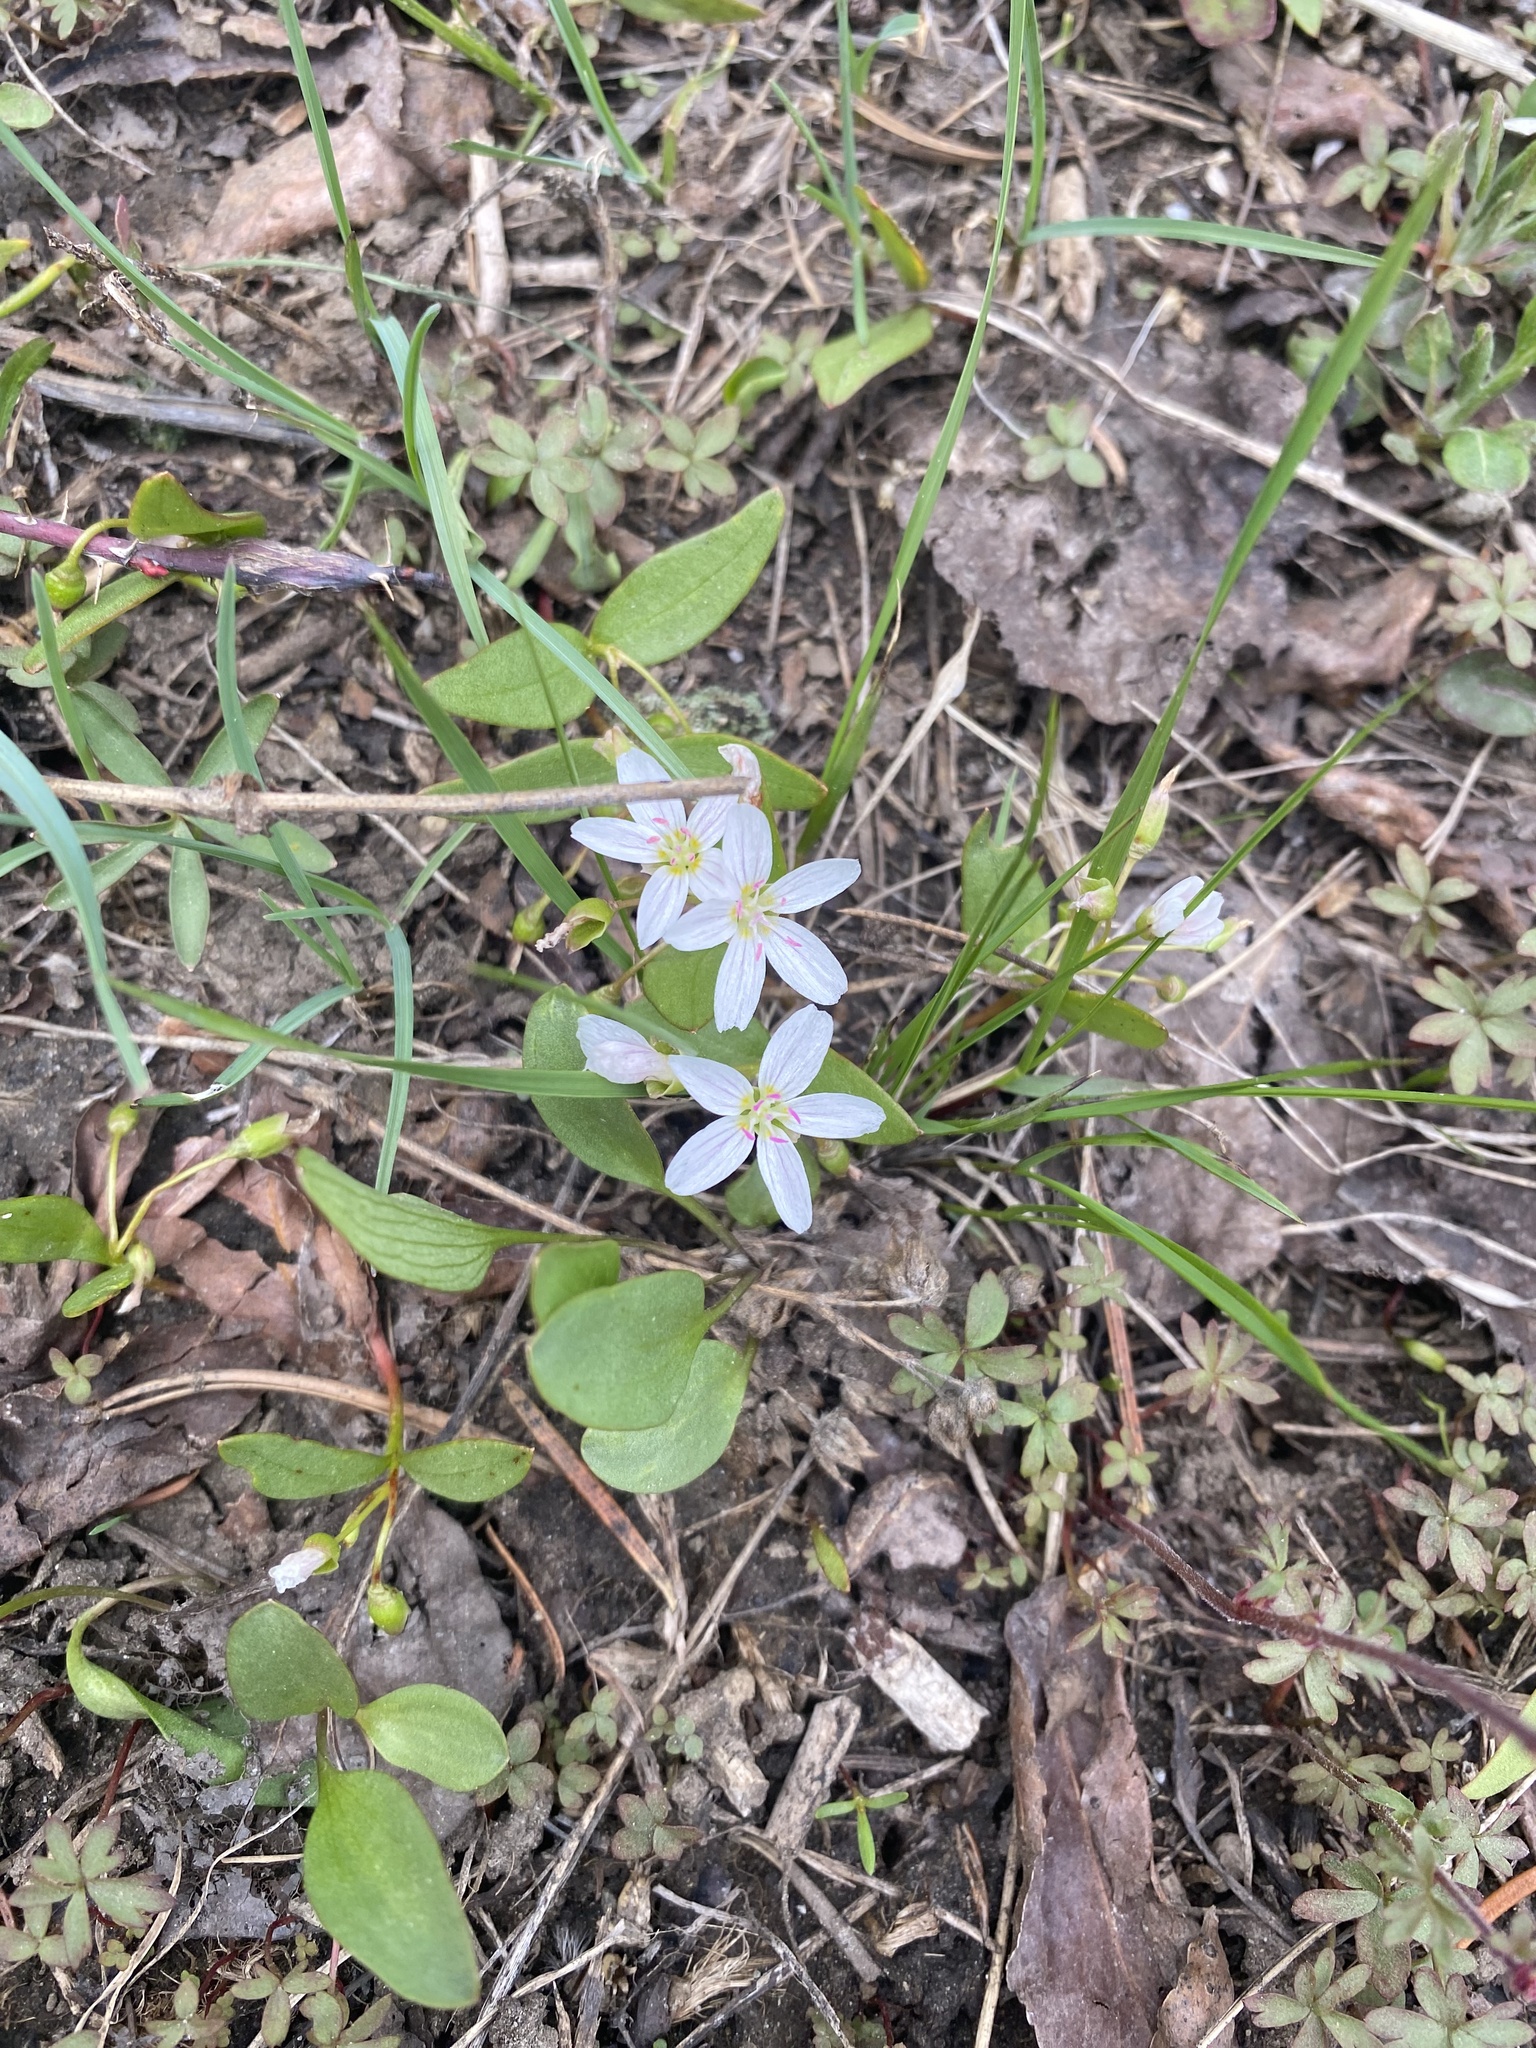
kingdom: Plantae
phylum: Tracheophyta
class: Magnoliopsida
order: Caryophyllales
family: Montiaceae
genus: Claytonia
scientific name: Claytonia lanceolata
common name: Western spring-beauty
